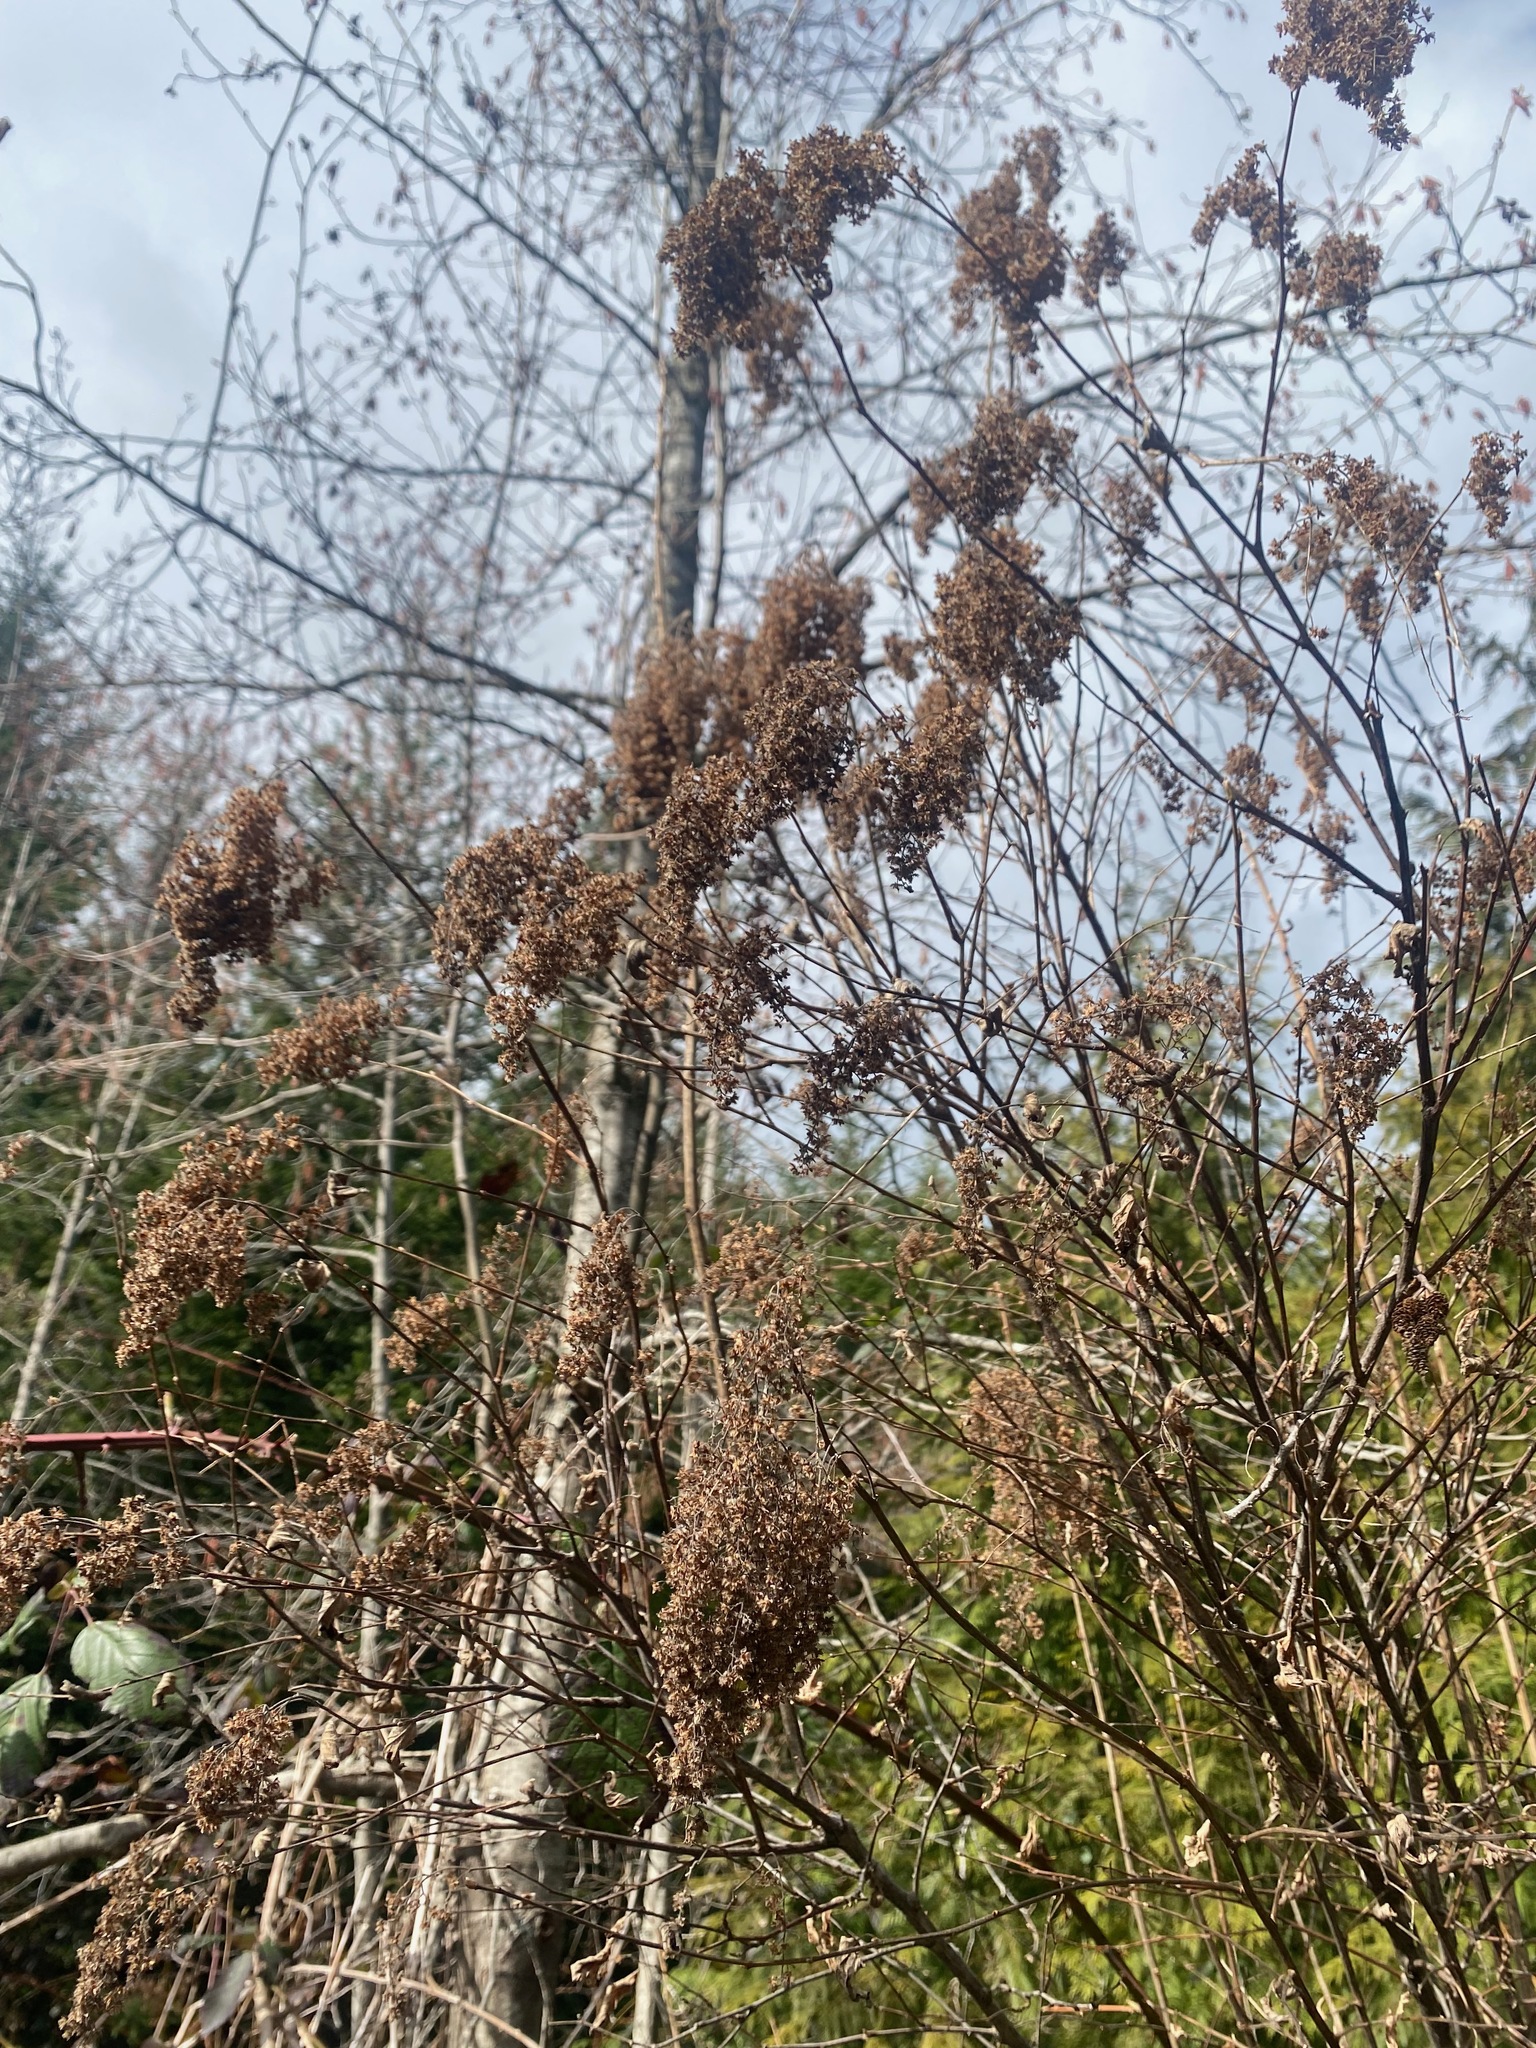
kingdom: Plantae
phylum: Tracheophyta
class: Magnoliopsida
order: Rosales
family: Rosaceae
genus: Holodiscus
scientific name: Holodiscus discolor
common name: Oceanspray
